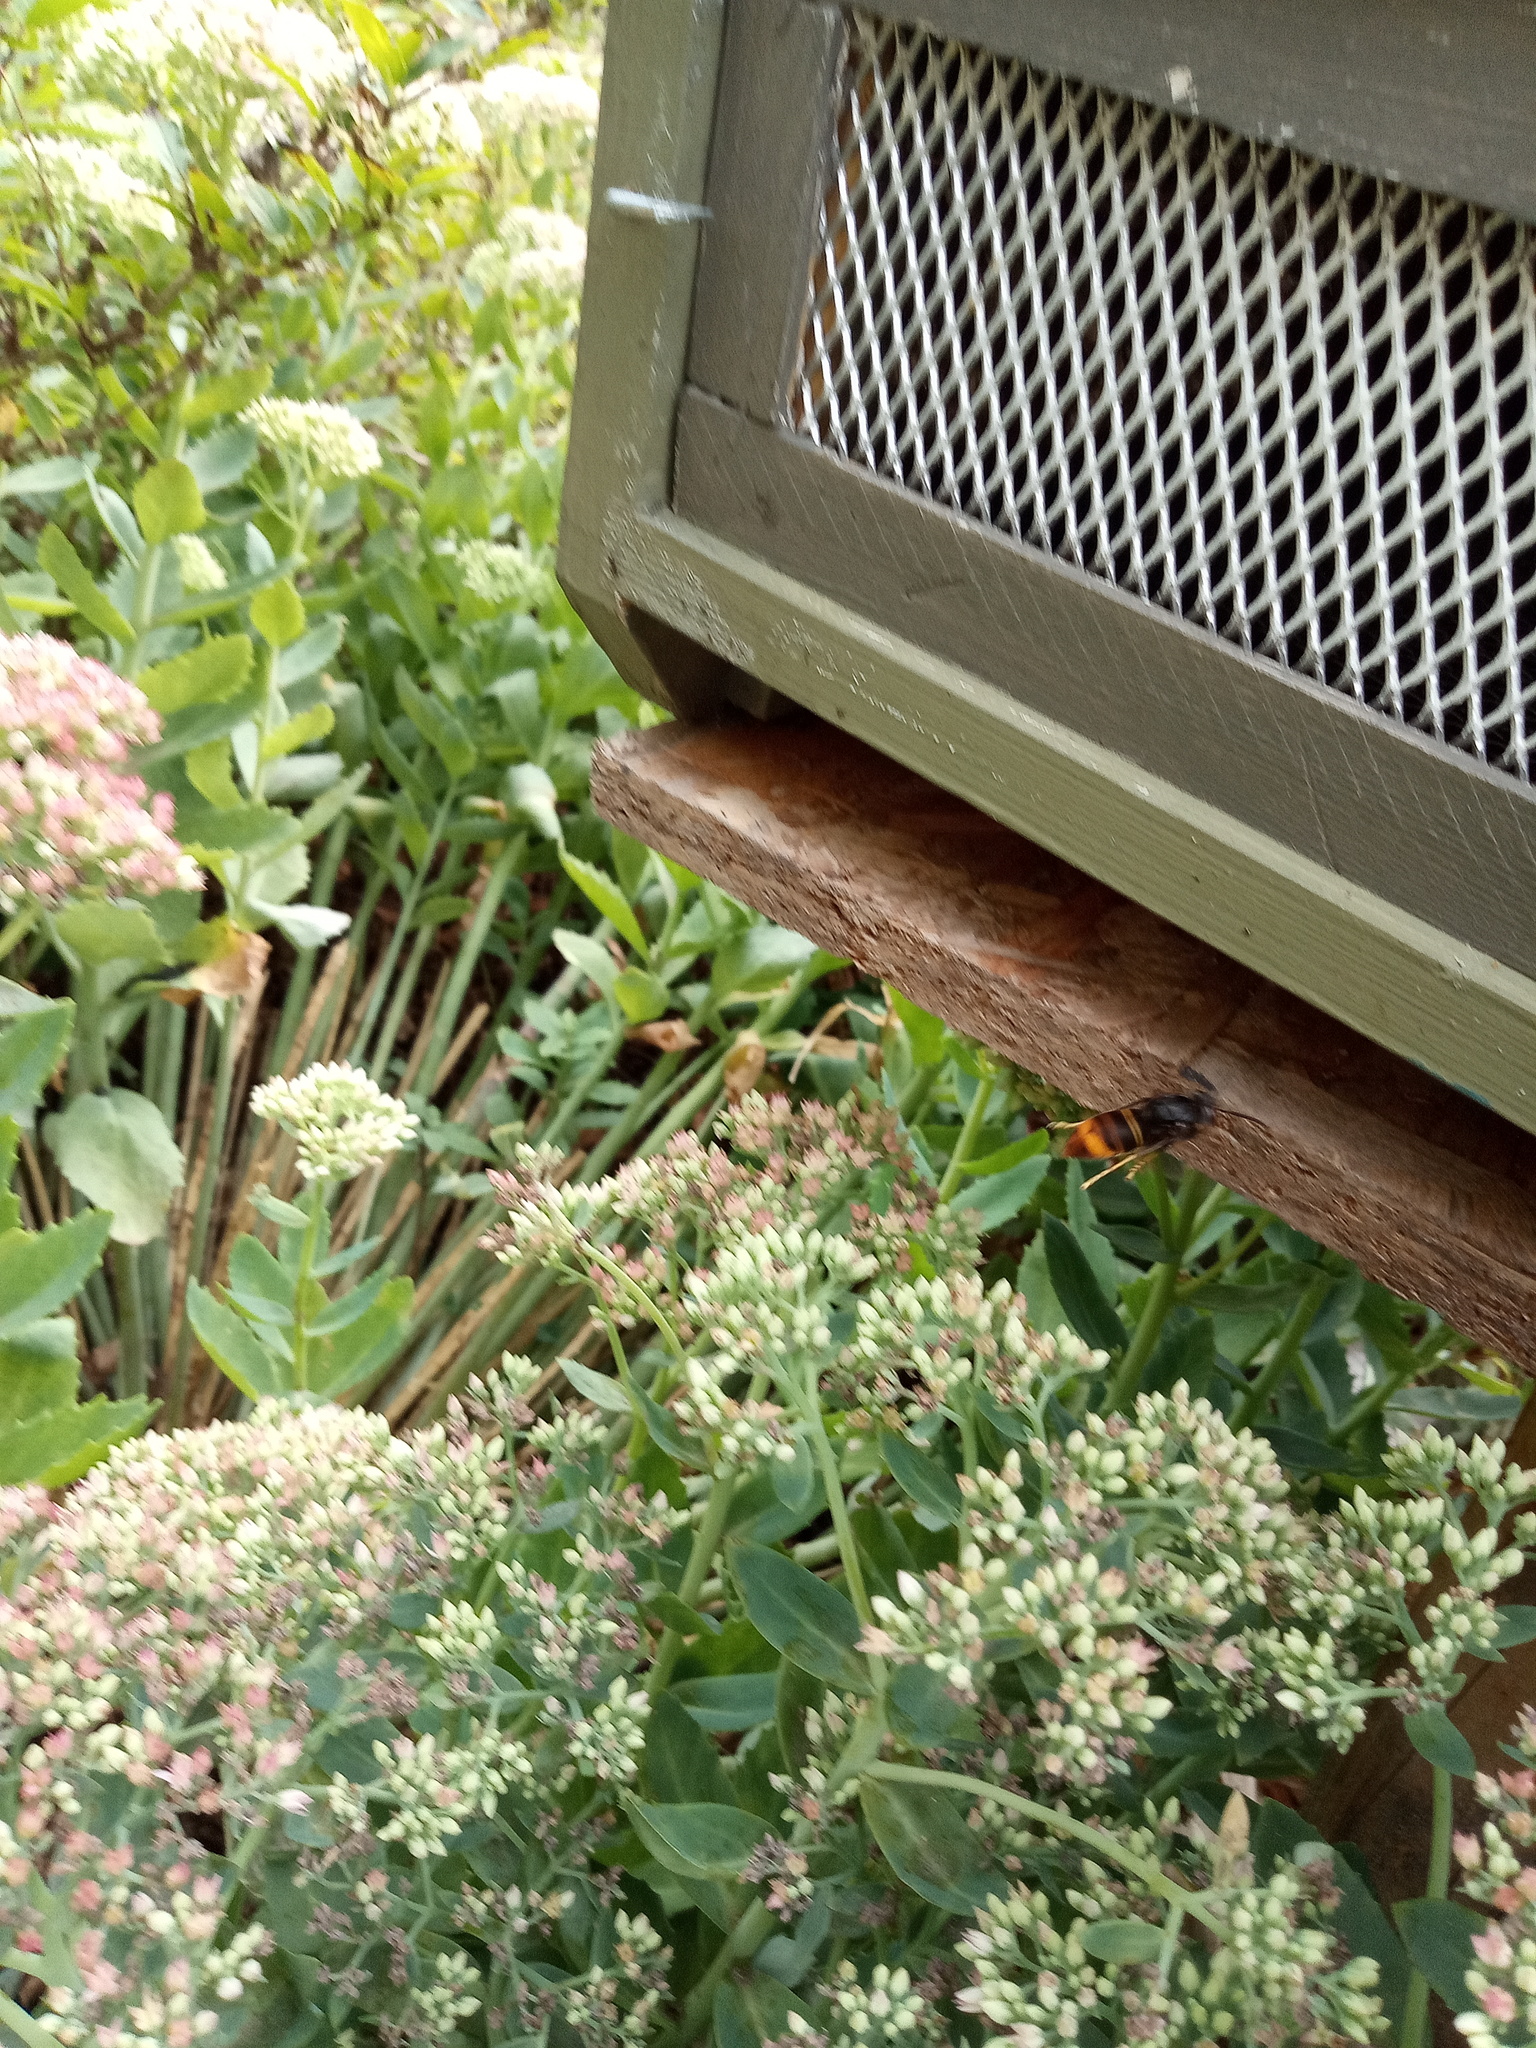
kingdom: Animalia
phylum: Arthropoda
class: Insecta
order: Hymenoptera
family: Vespidae
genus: Vespa
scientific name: Vespa velutina
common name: Asian hornet
